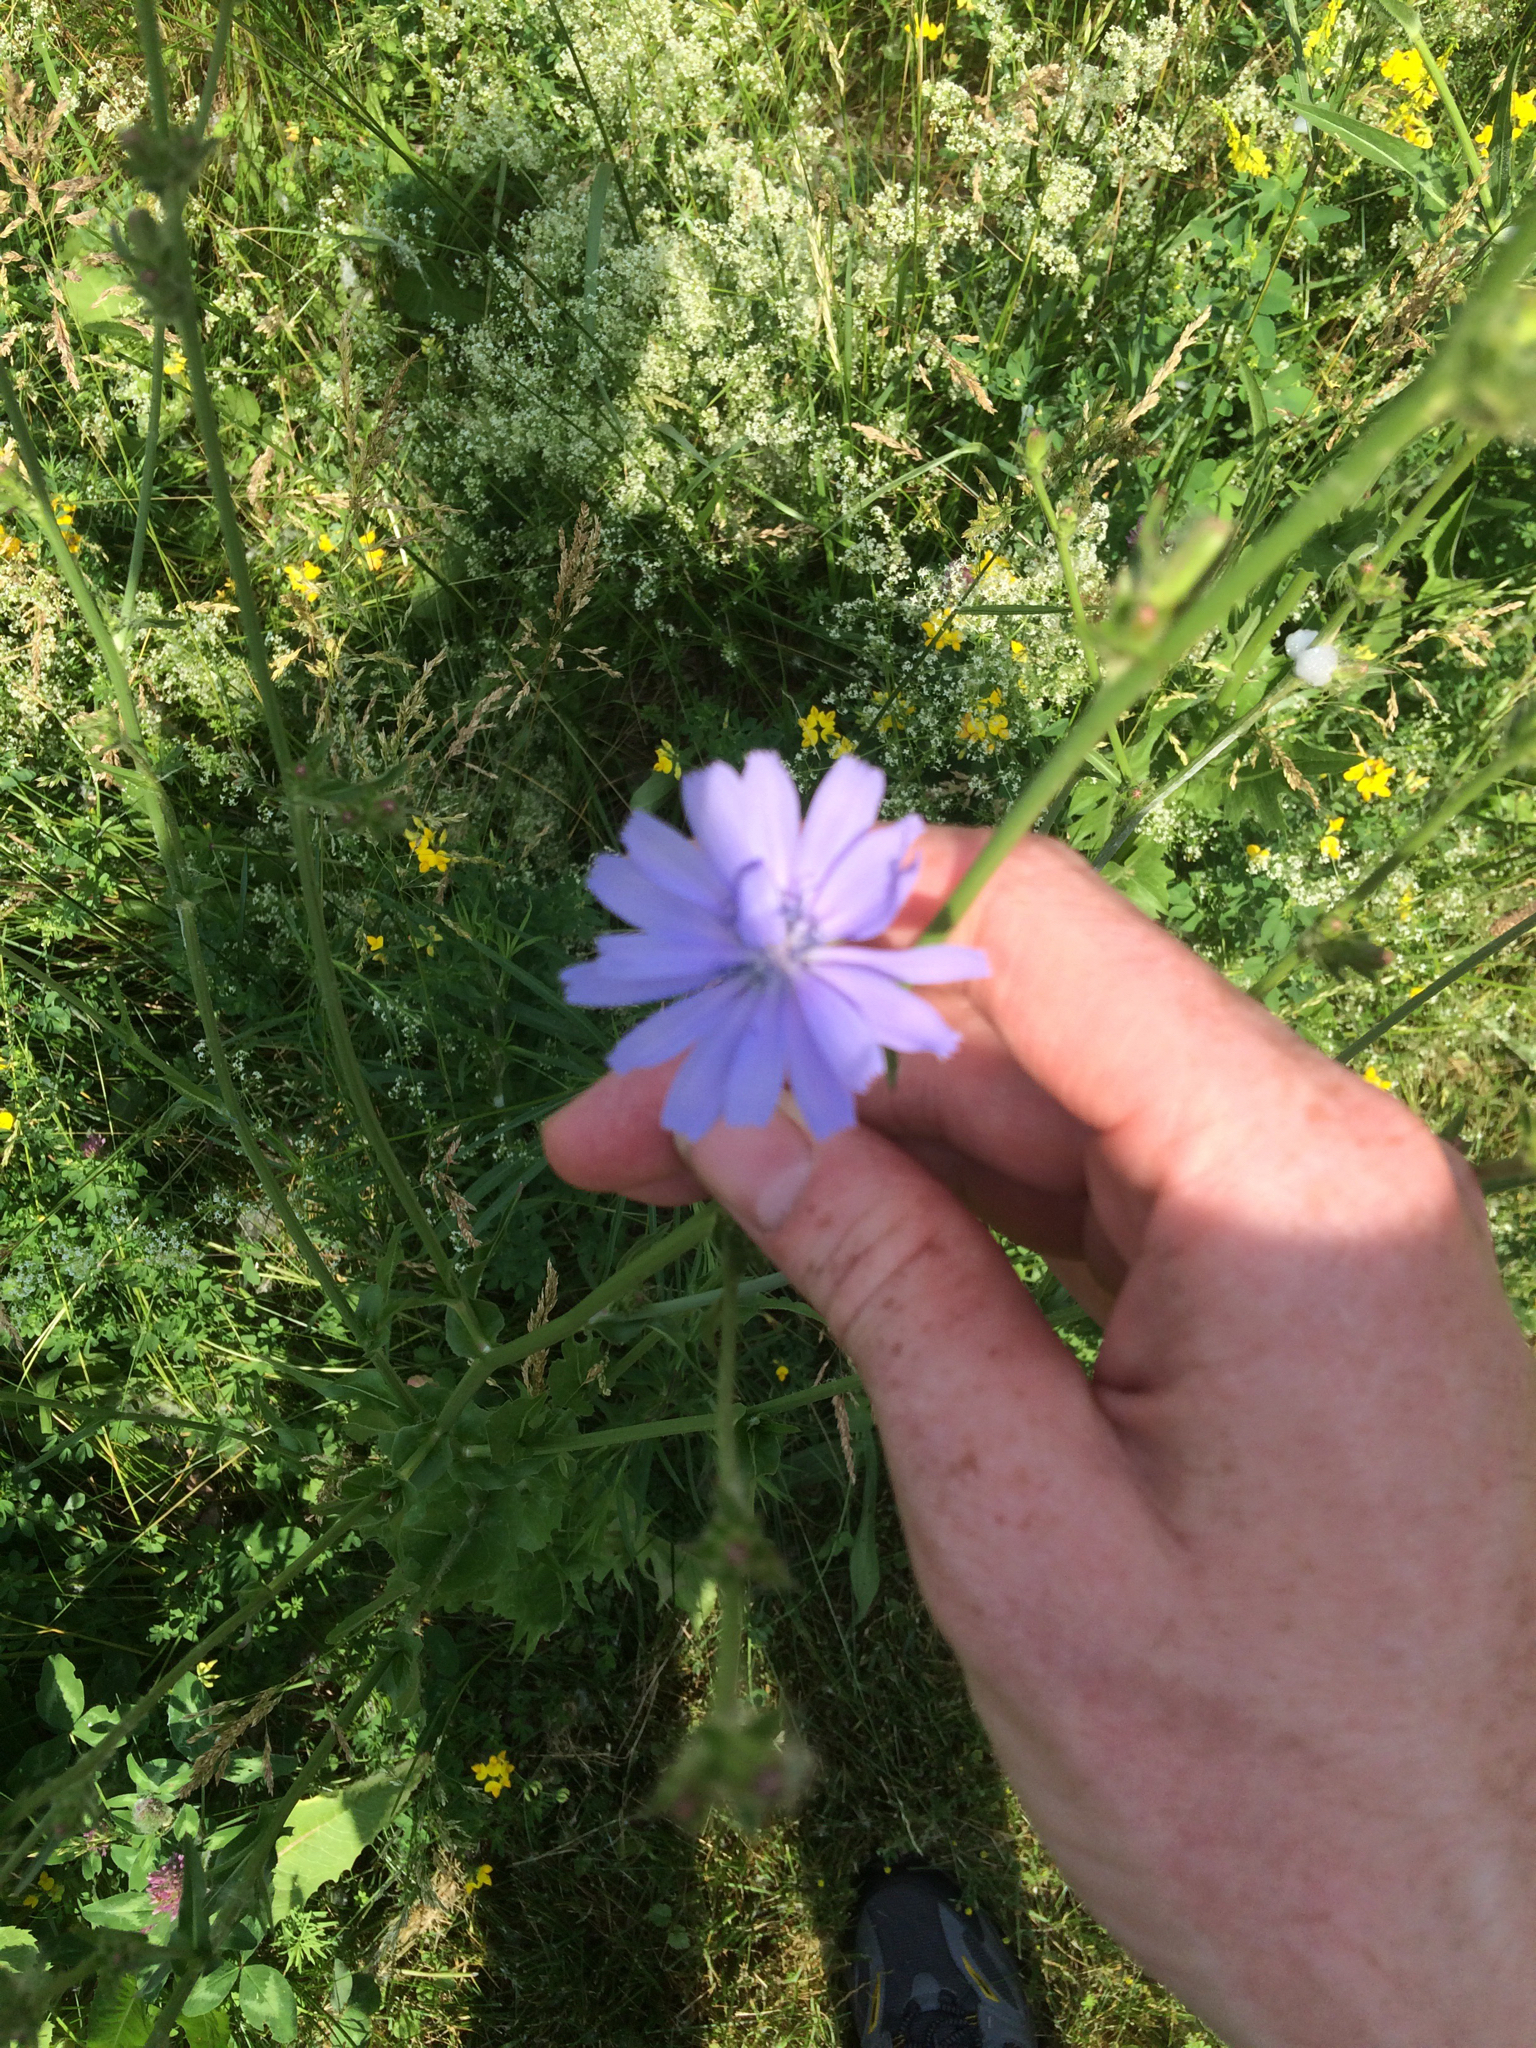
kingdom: Plantae
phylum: Tracheophyta
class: Magnoliopsida
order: Asterales
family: Asteraceae
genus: Cichorium
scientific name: Cichorium intybus
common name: Chicory
